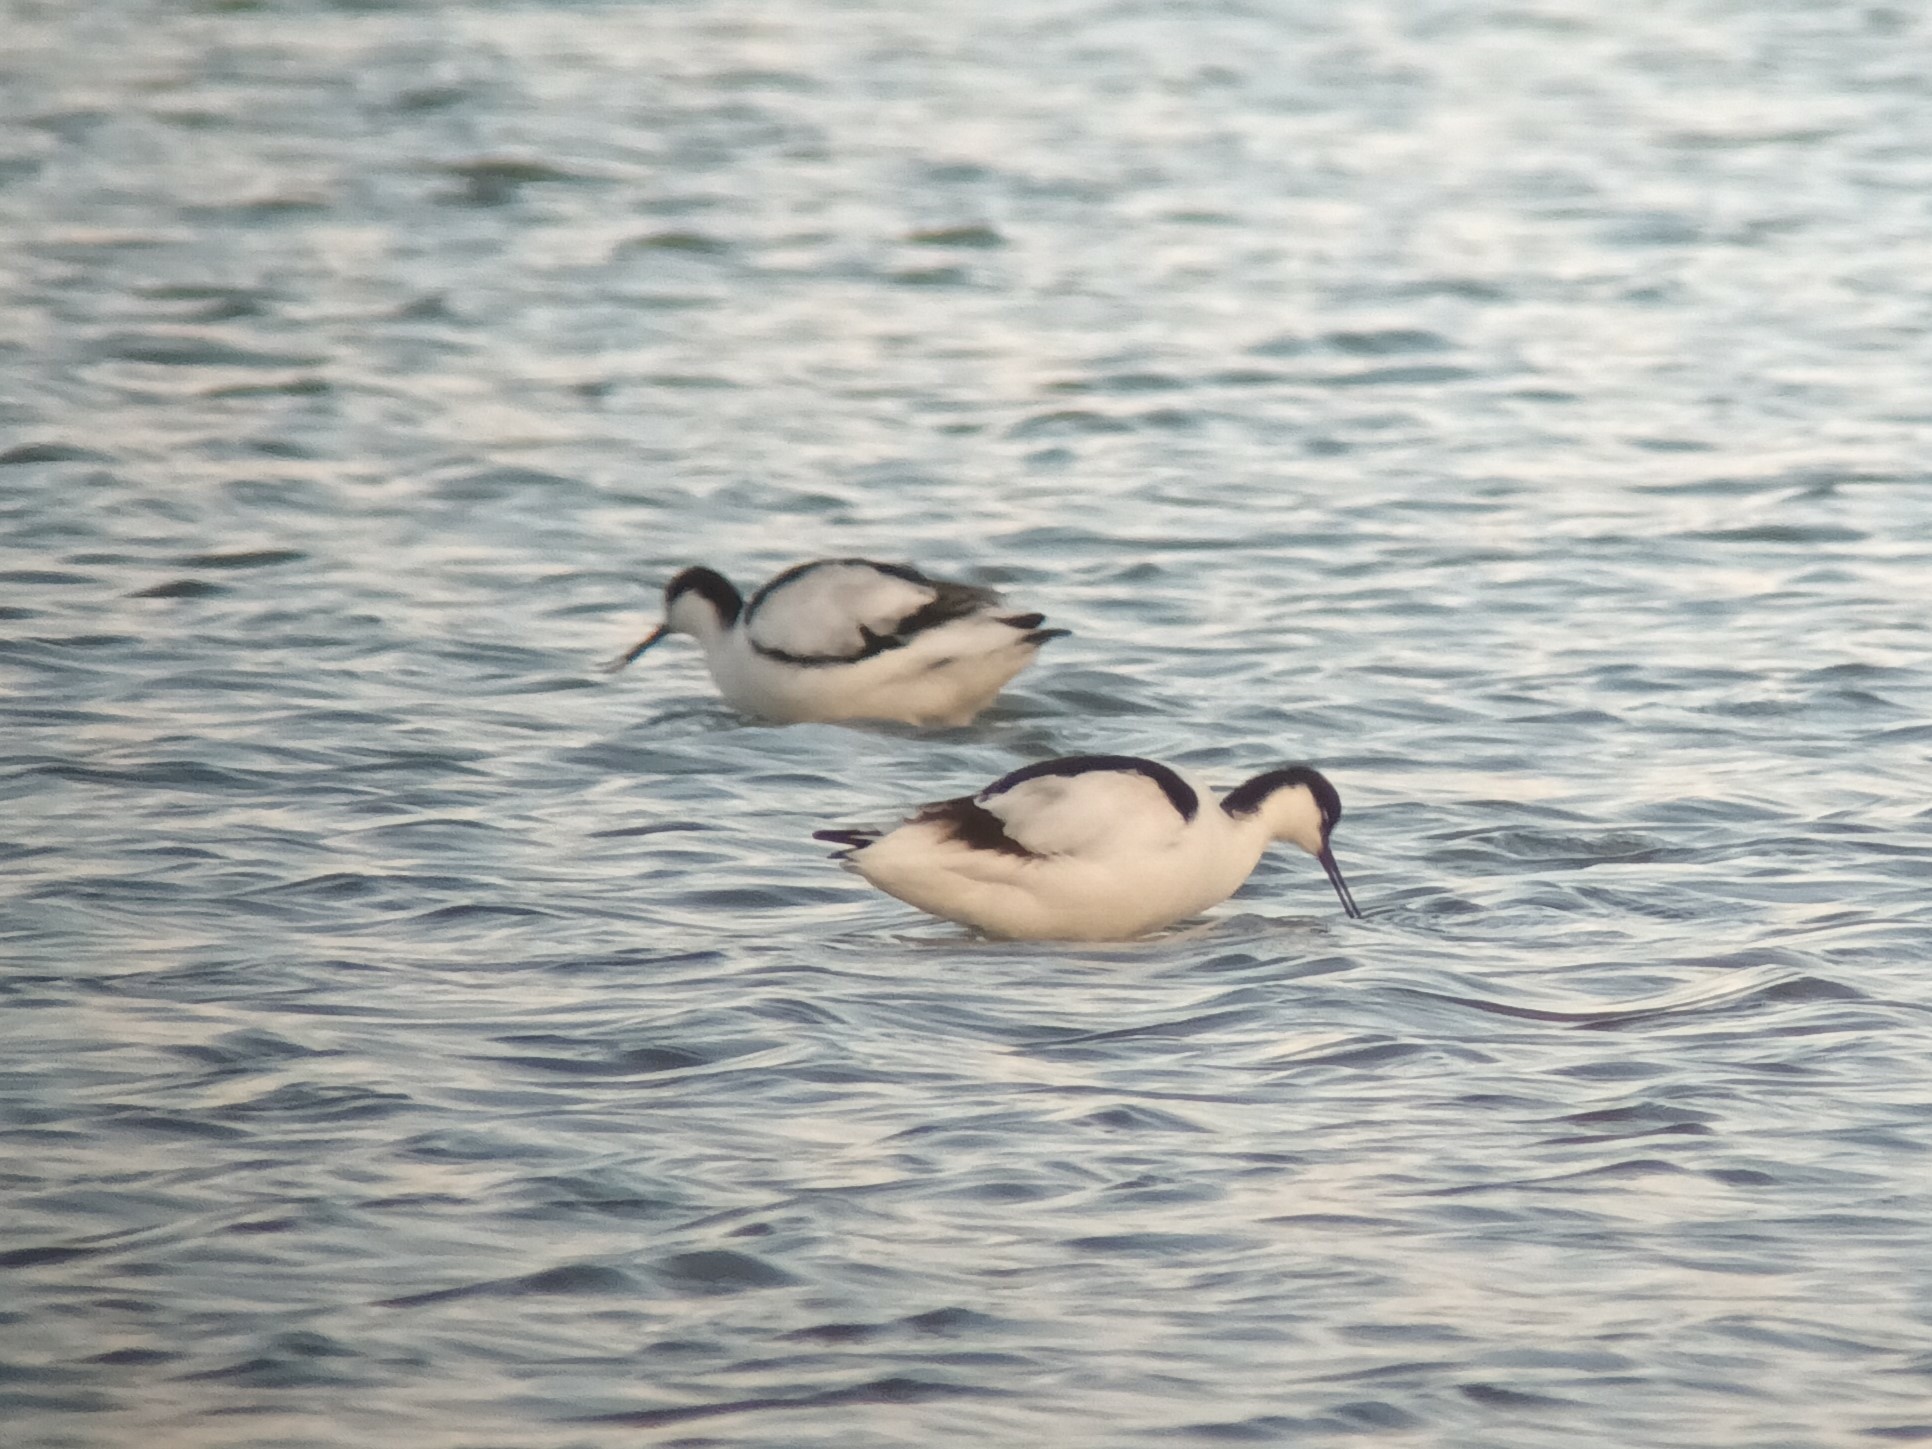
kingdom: Animalia
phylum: Chordata
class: Aves
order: Charadriiformes
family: Recurvirostridae
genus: Recurvirostra
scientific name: Recurvirostra avosetta
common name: Pied avocet
